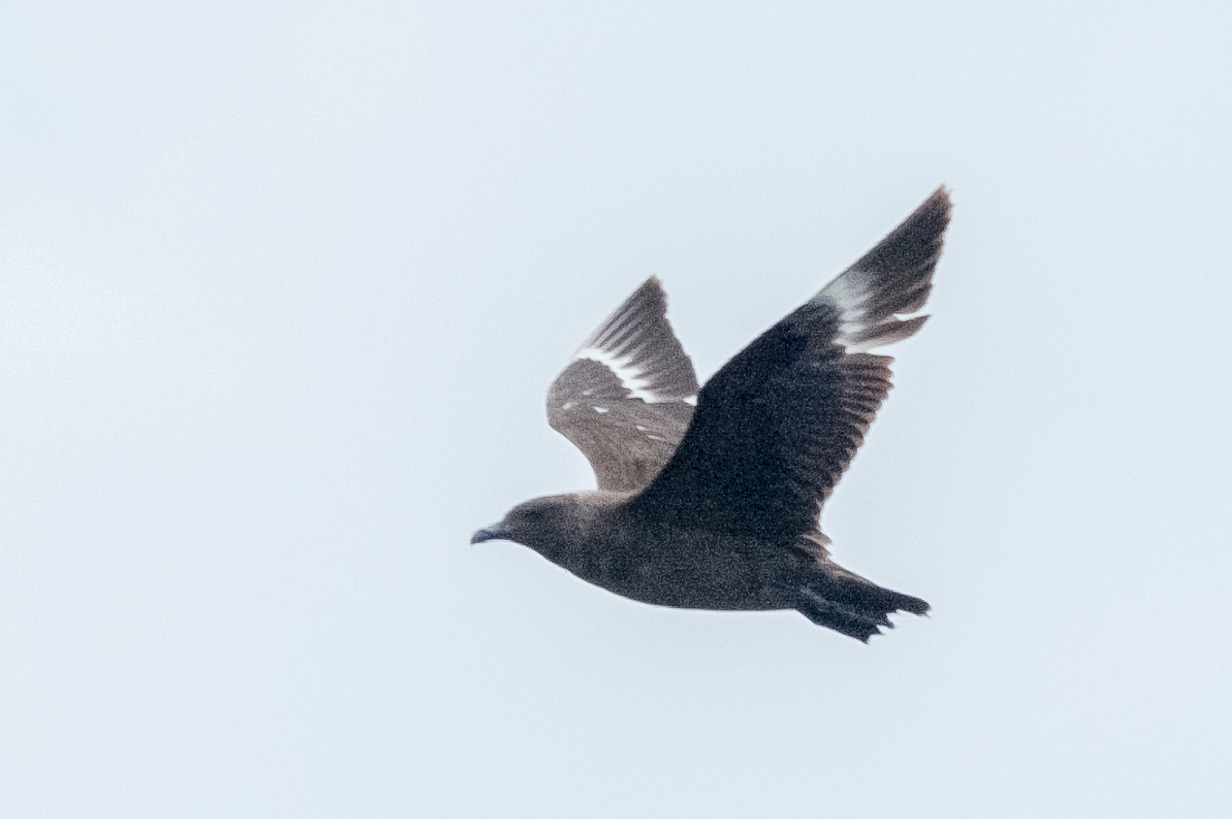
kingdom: Animalia
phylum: Chordata
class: Aves
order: Charadriiformes
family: Stercorariidae
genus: Stercorarius
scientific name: Stercorarius maccormicki
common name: South polar skua
